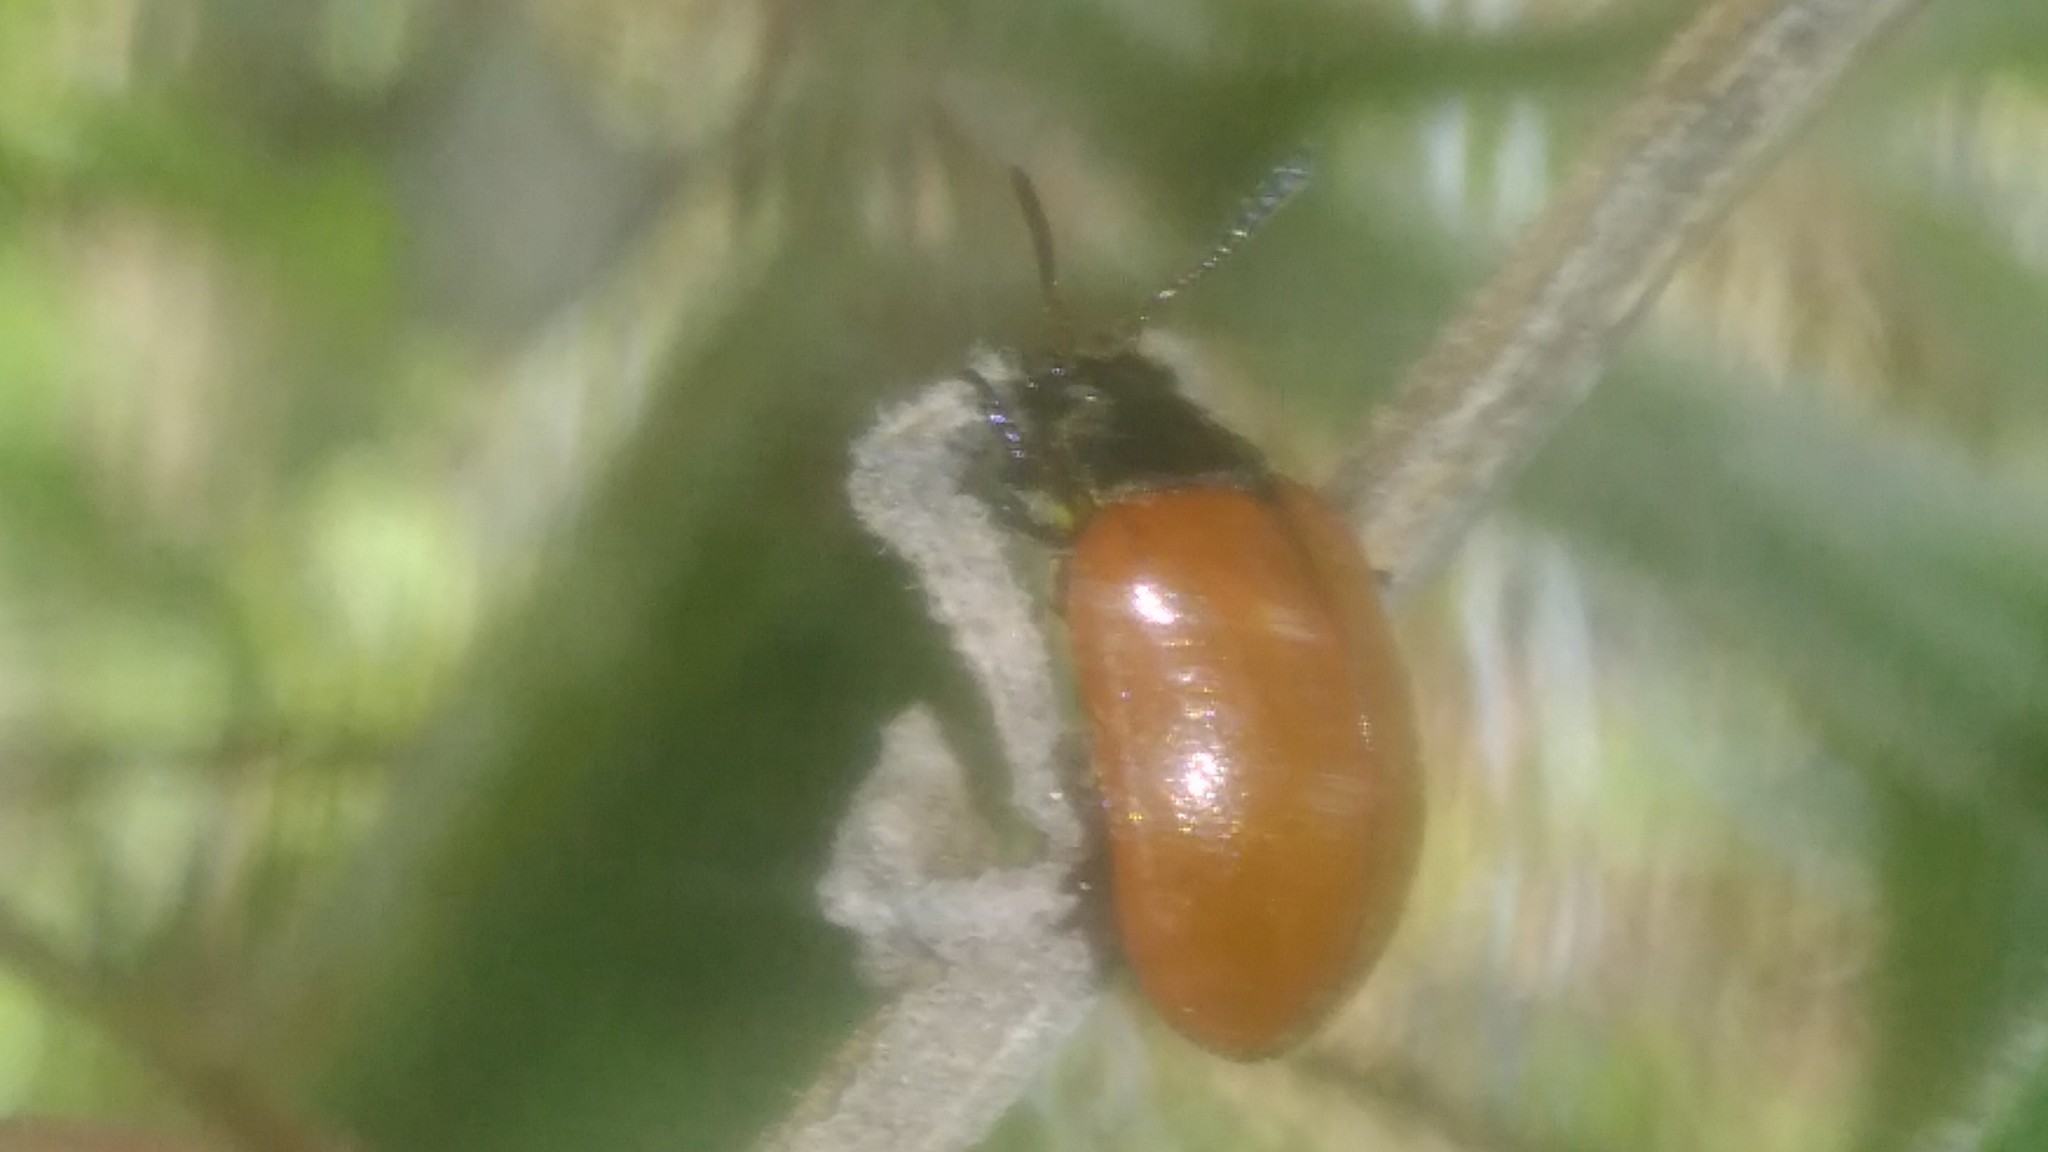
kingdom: Animalia
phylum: Arthropoda
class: Insecta
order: Coleoptera
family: Chrysomelidae
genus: Plagiodera
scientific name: Plagiodera
